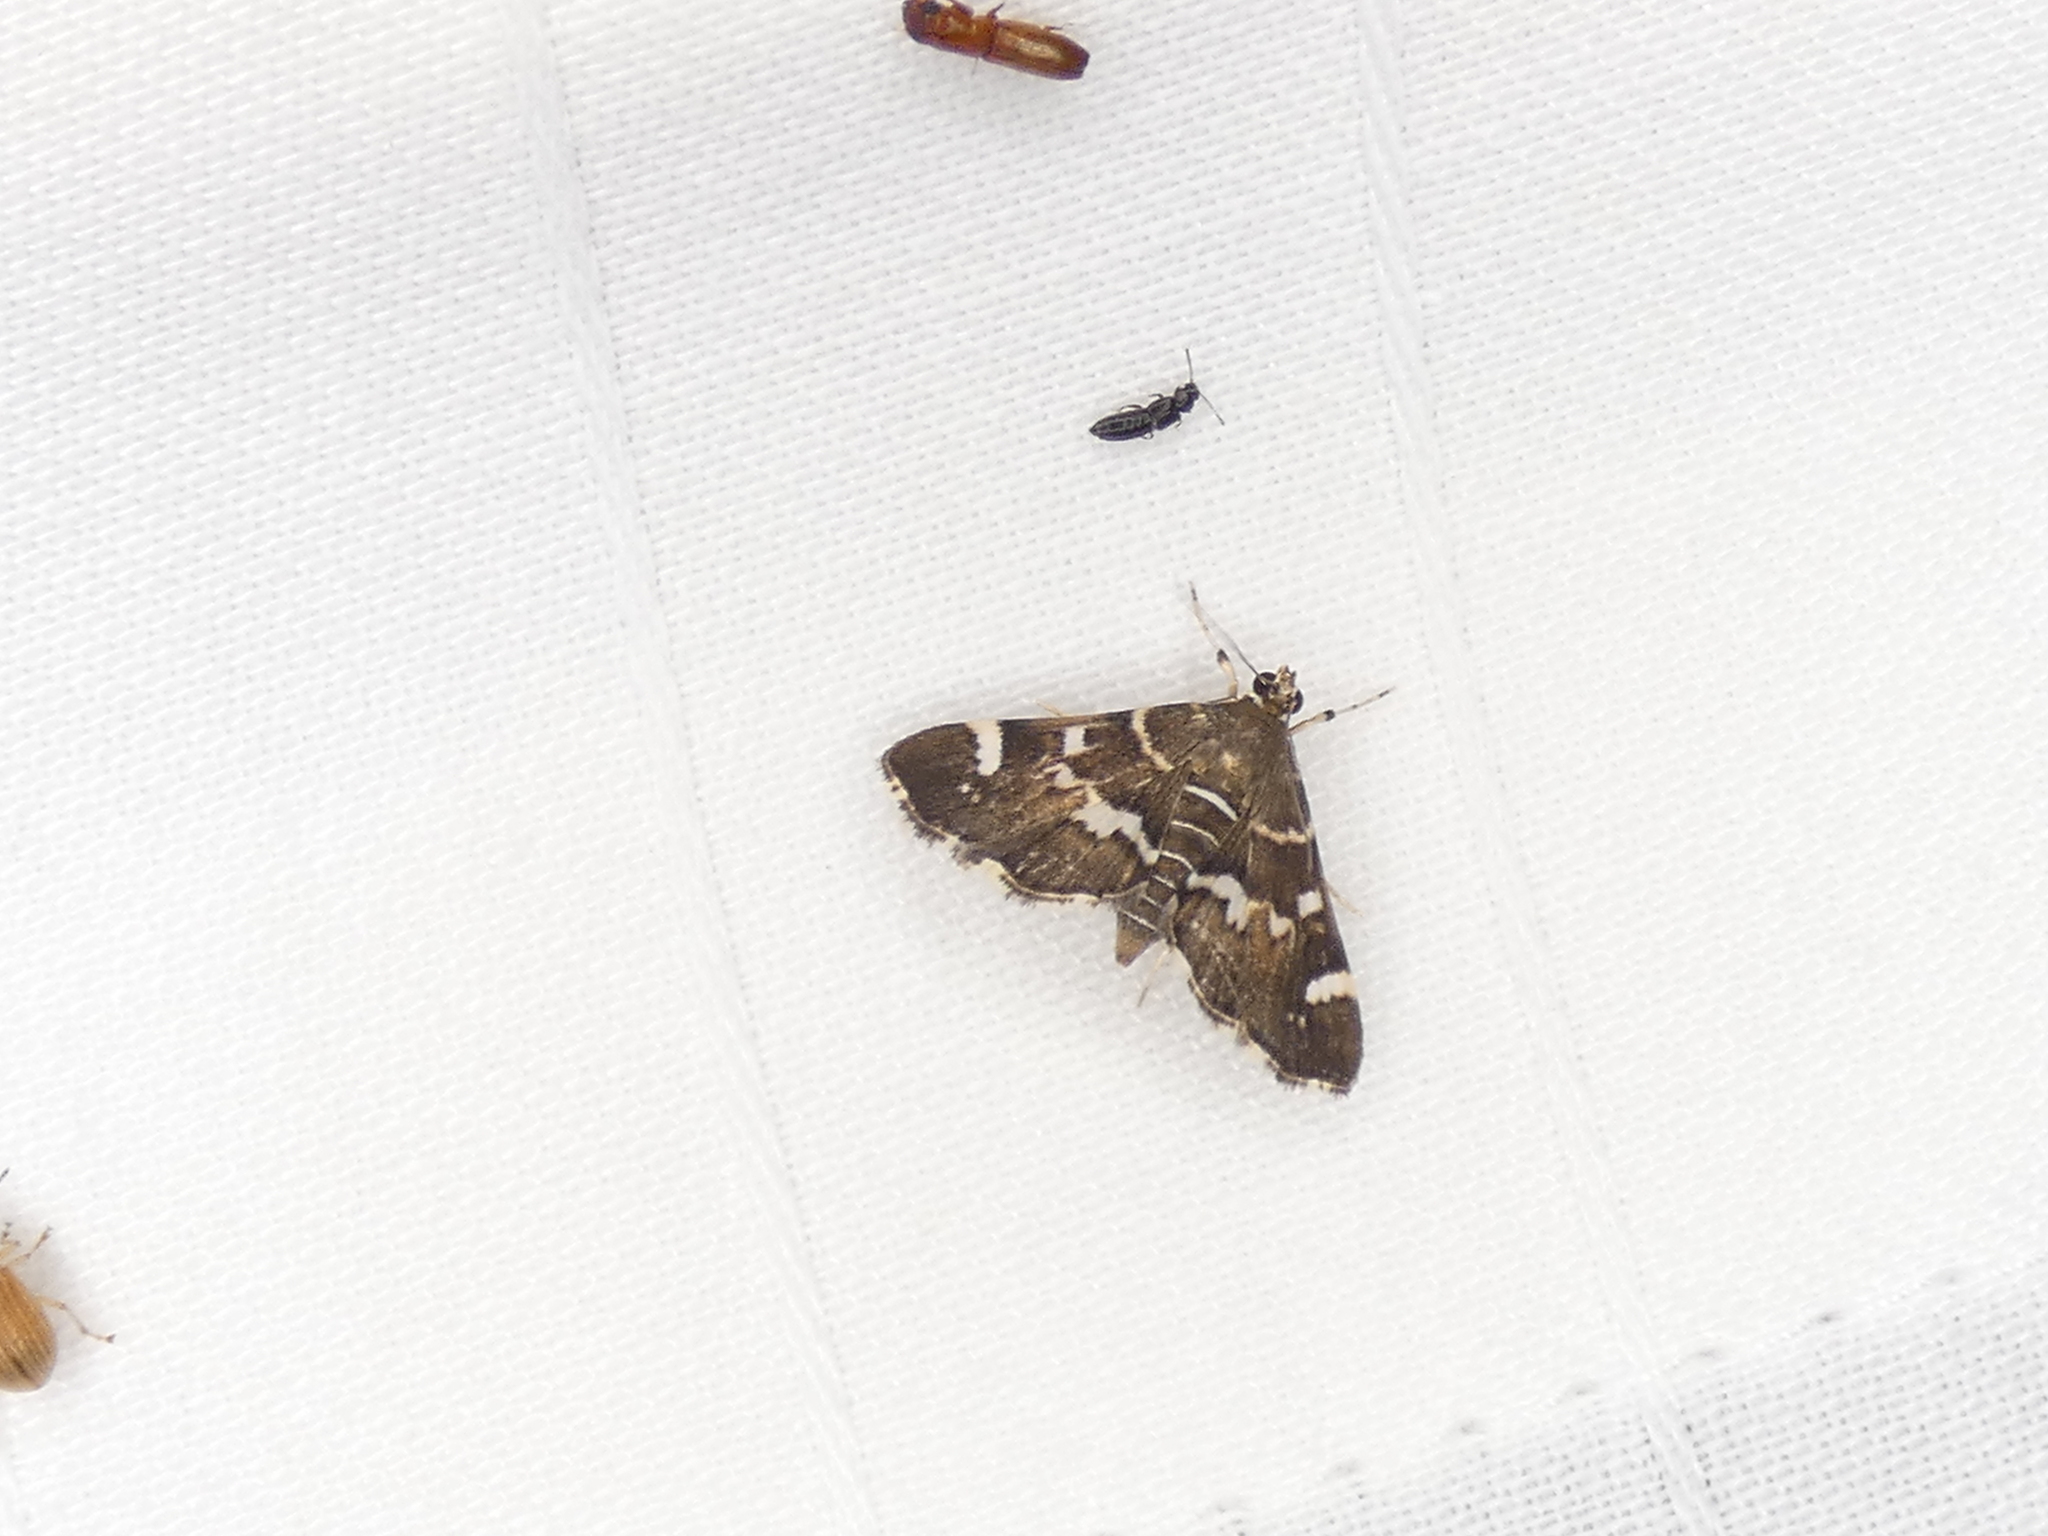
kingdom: Animalia
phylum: Arthropoda
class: Insecta
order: Lepidoptera
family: Crambidae
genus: Hymenia
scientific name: Hymenia perspectalis
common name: Spotted beet webworm
